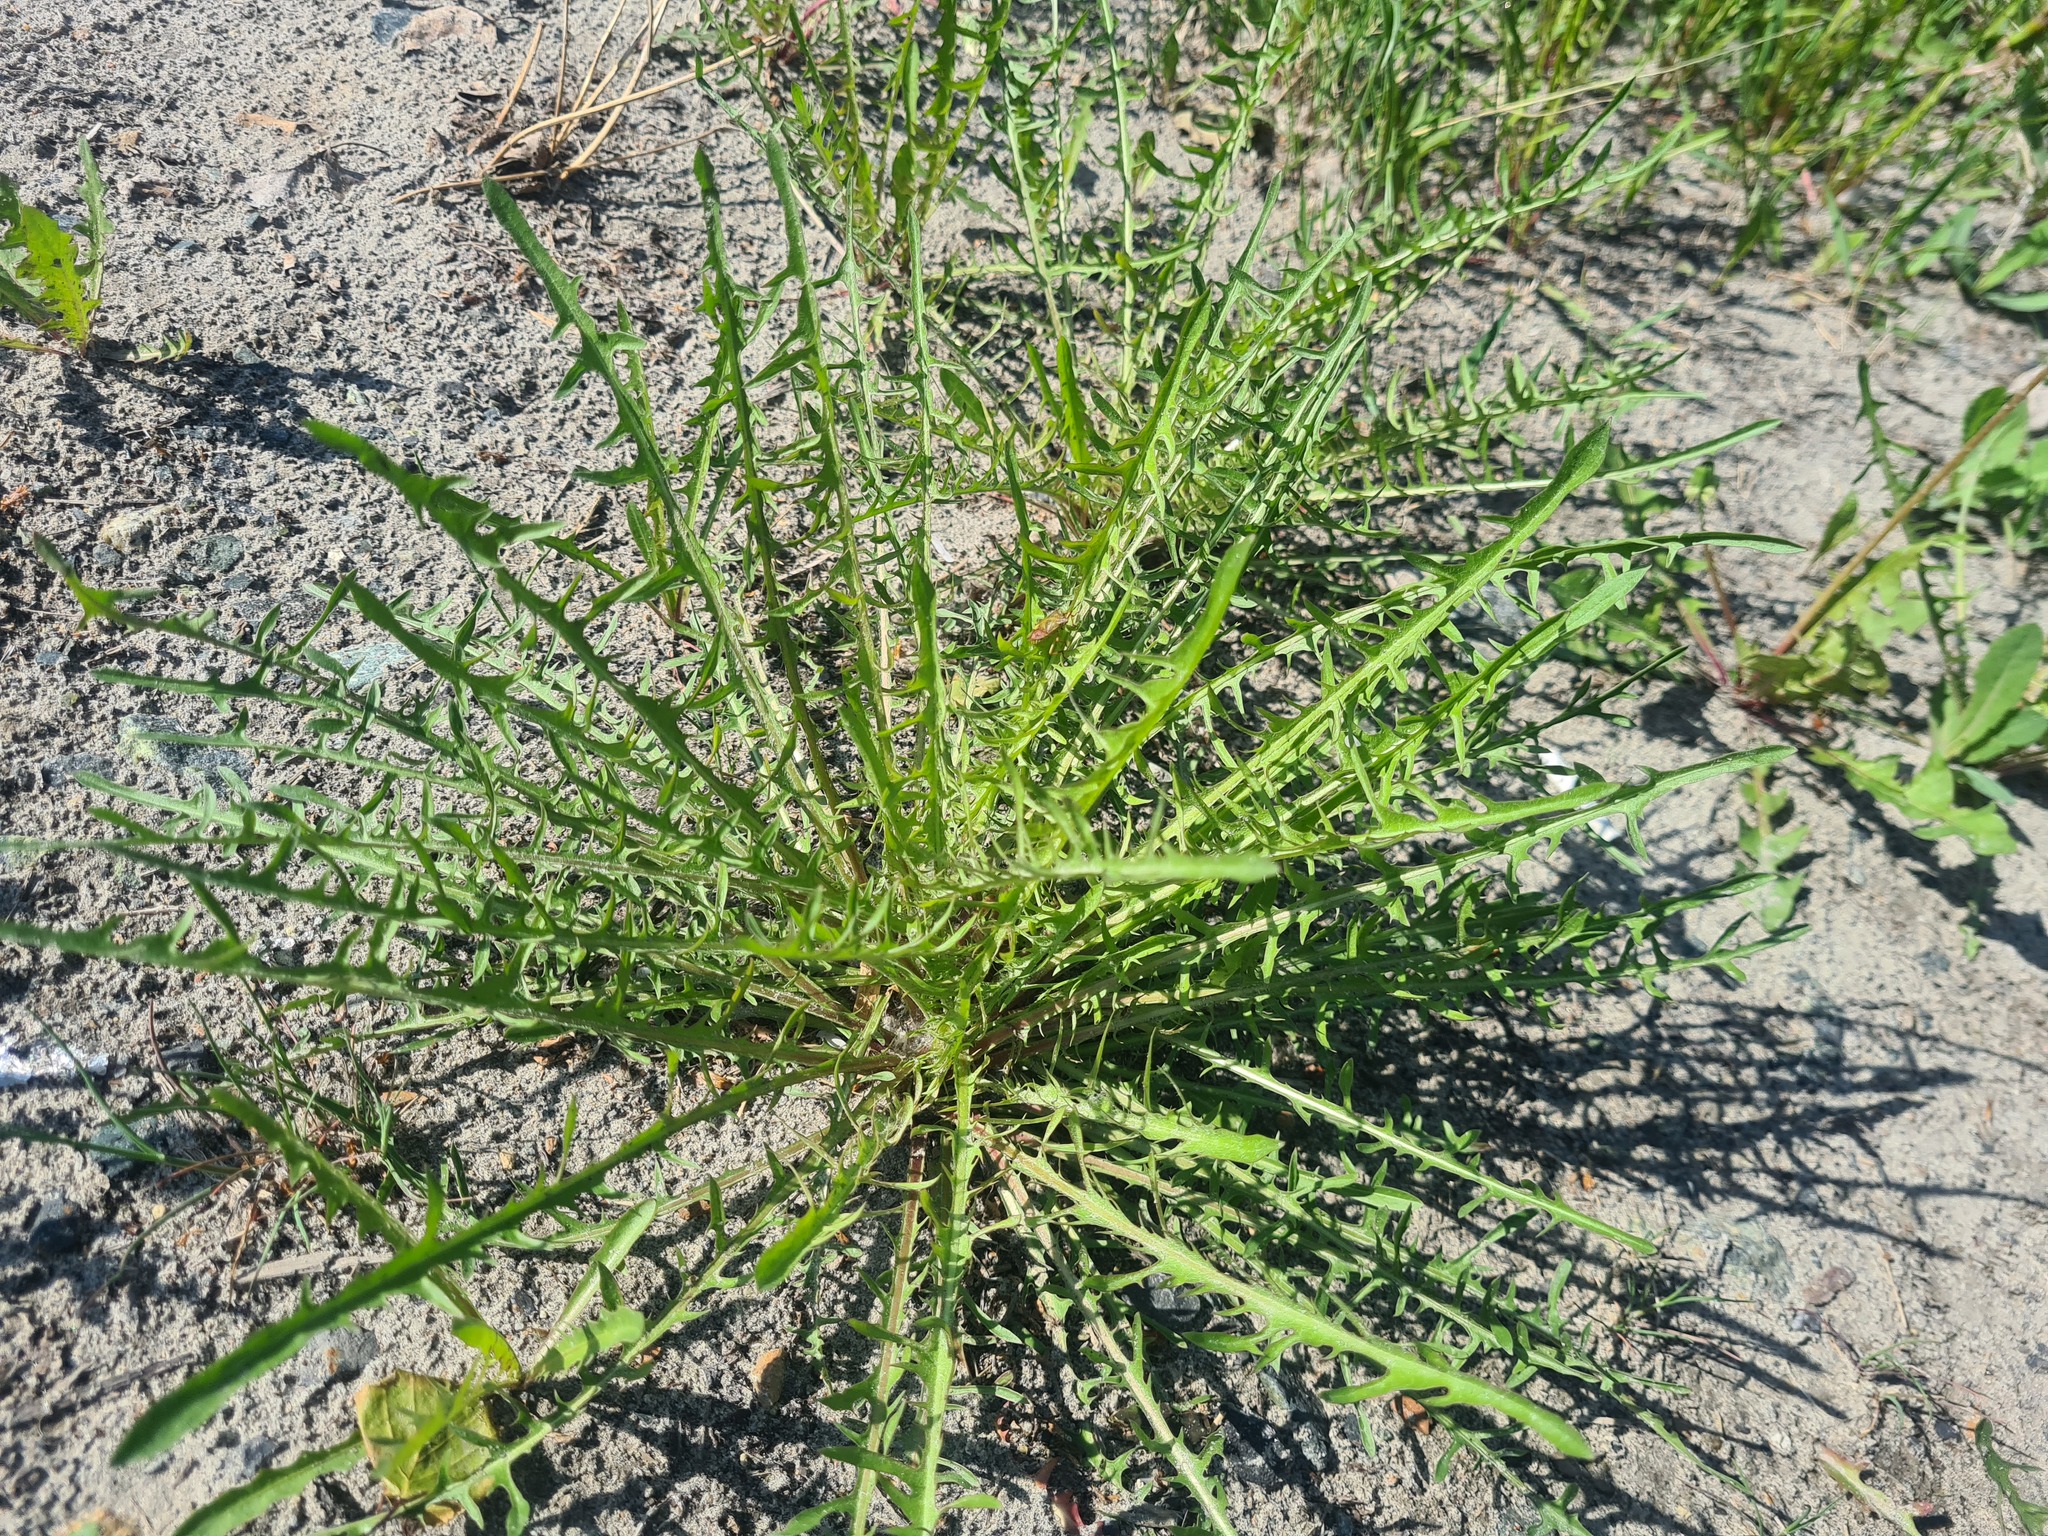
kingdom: Plantae
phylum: Tracheophyta
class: Magnoliopsida
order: Asterales
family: Asteraceae
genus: Taraxacum
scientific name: Taraxacum scariosum
